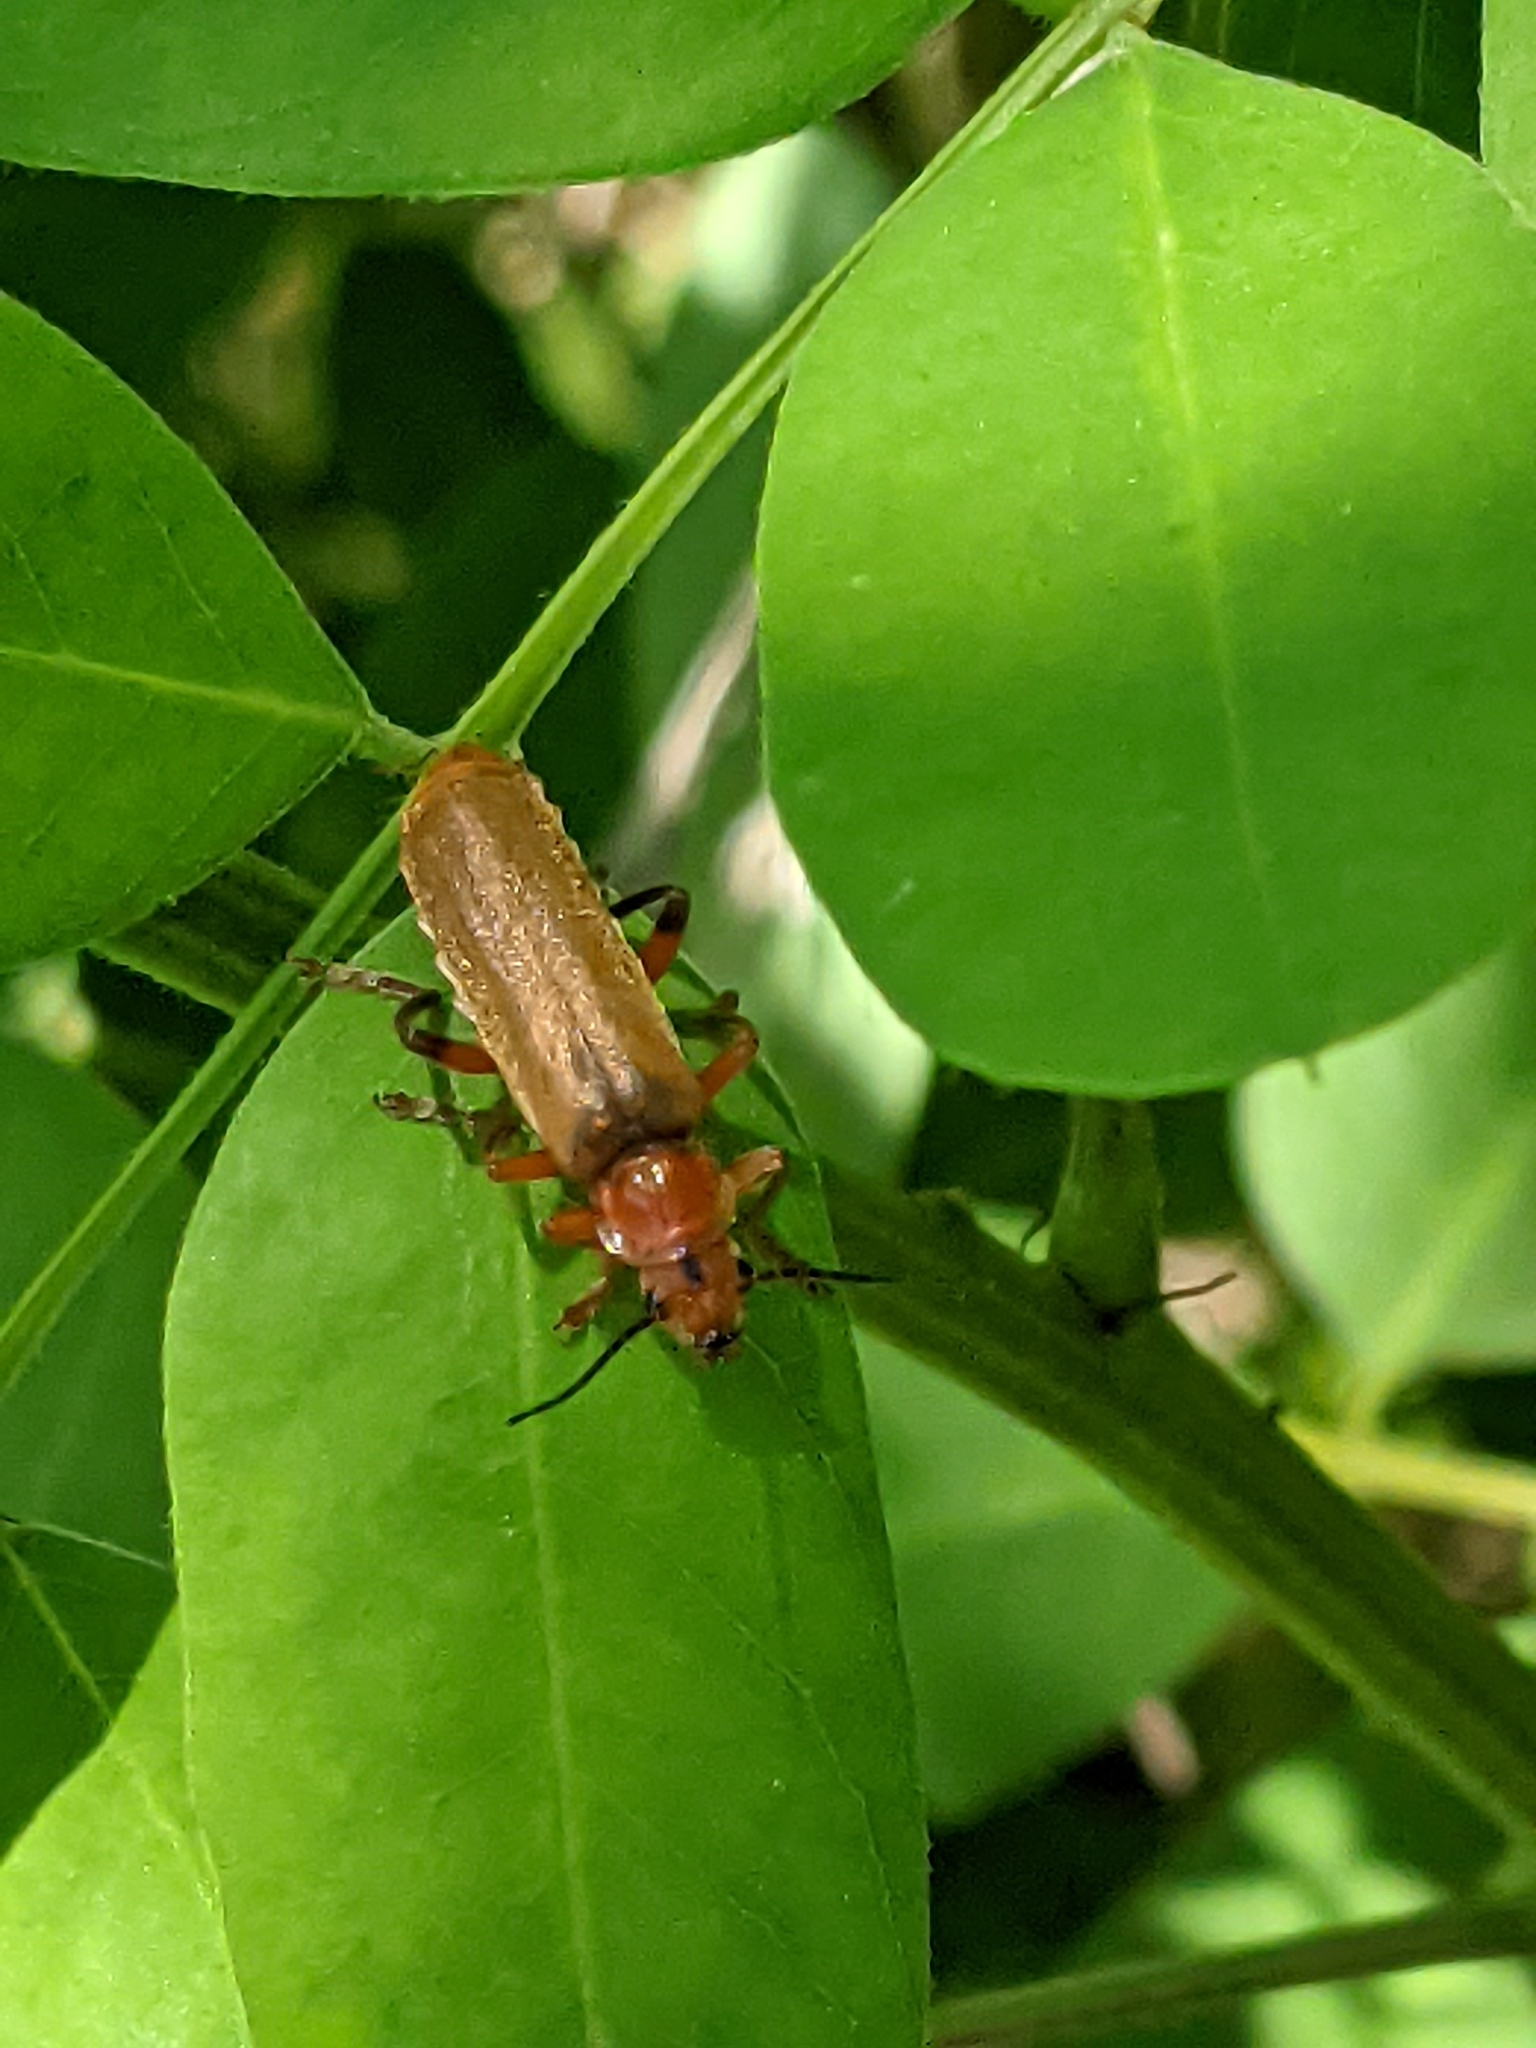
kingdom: Animalia
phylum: Arthropoda
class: Insecta
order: Coleoptera
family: Cantharidae
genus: Cantharis
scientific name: Cantharis livida
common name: Livid soldier beetle
